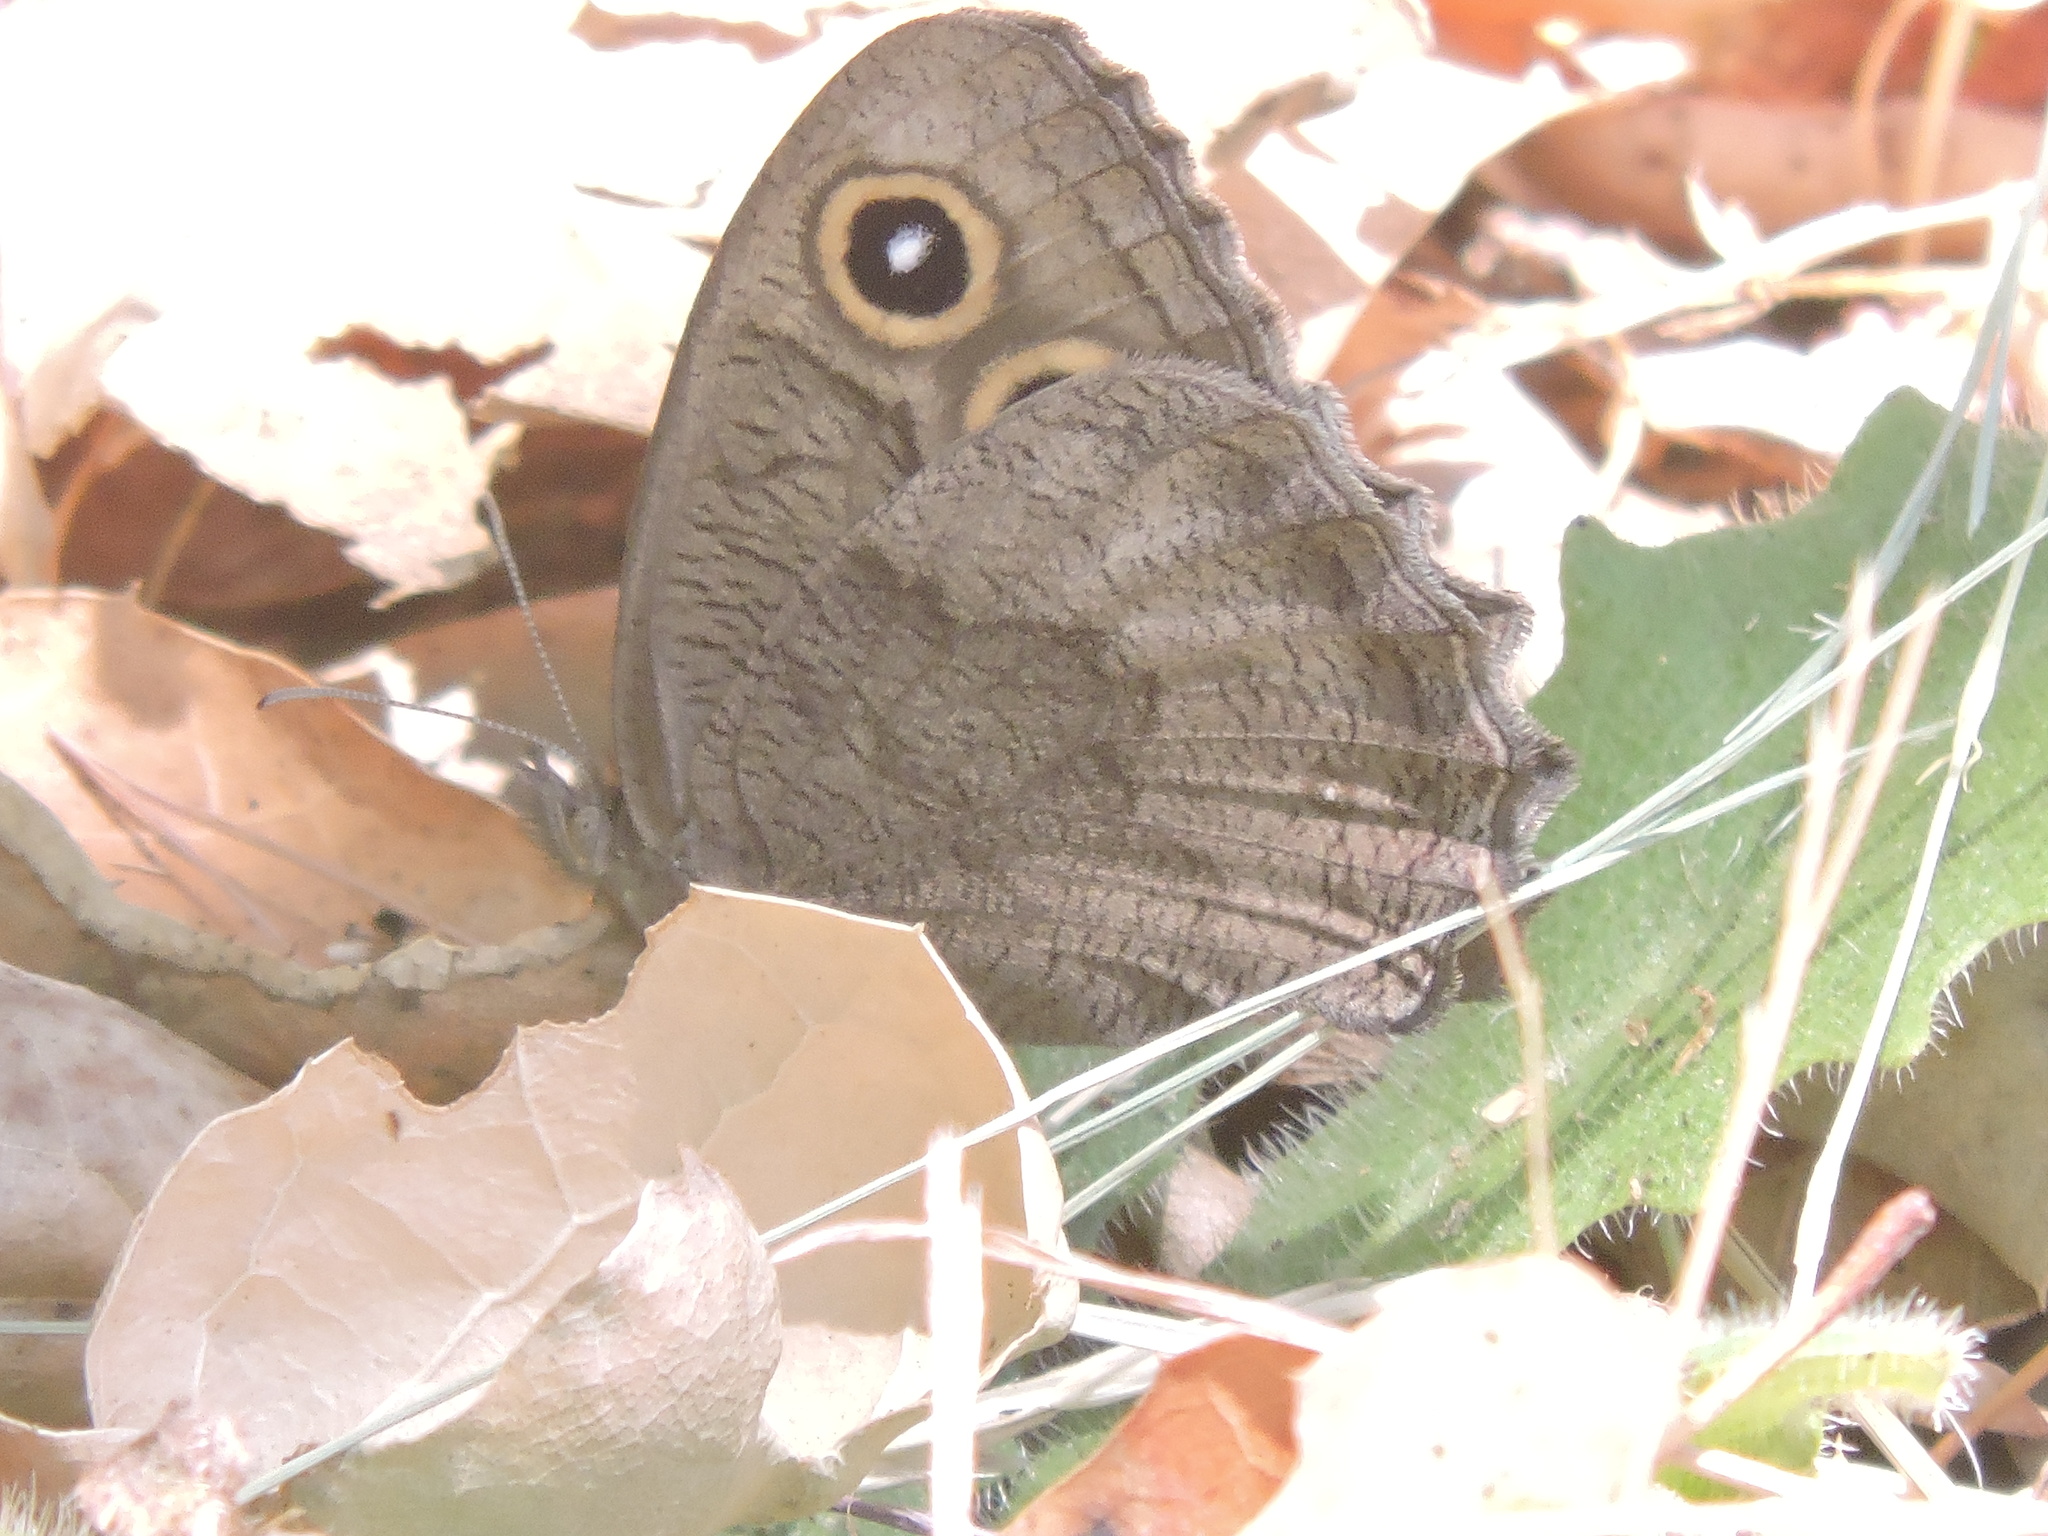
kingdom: Animalia
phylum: Arthropoda
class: Insecta
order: Lepidoptera
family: Nymphalidae
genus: Cercyonis
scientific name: Cercyonis pegala
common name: Common wood-nymph
